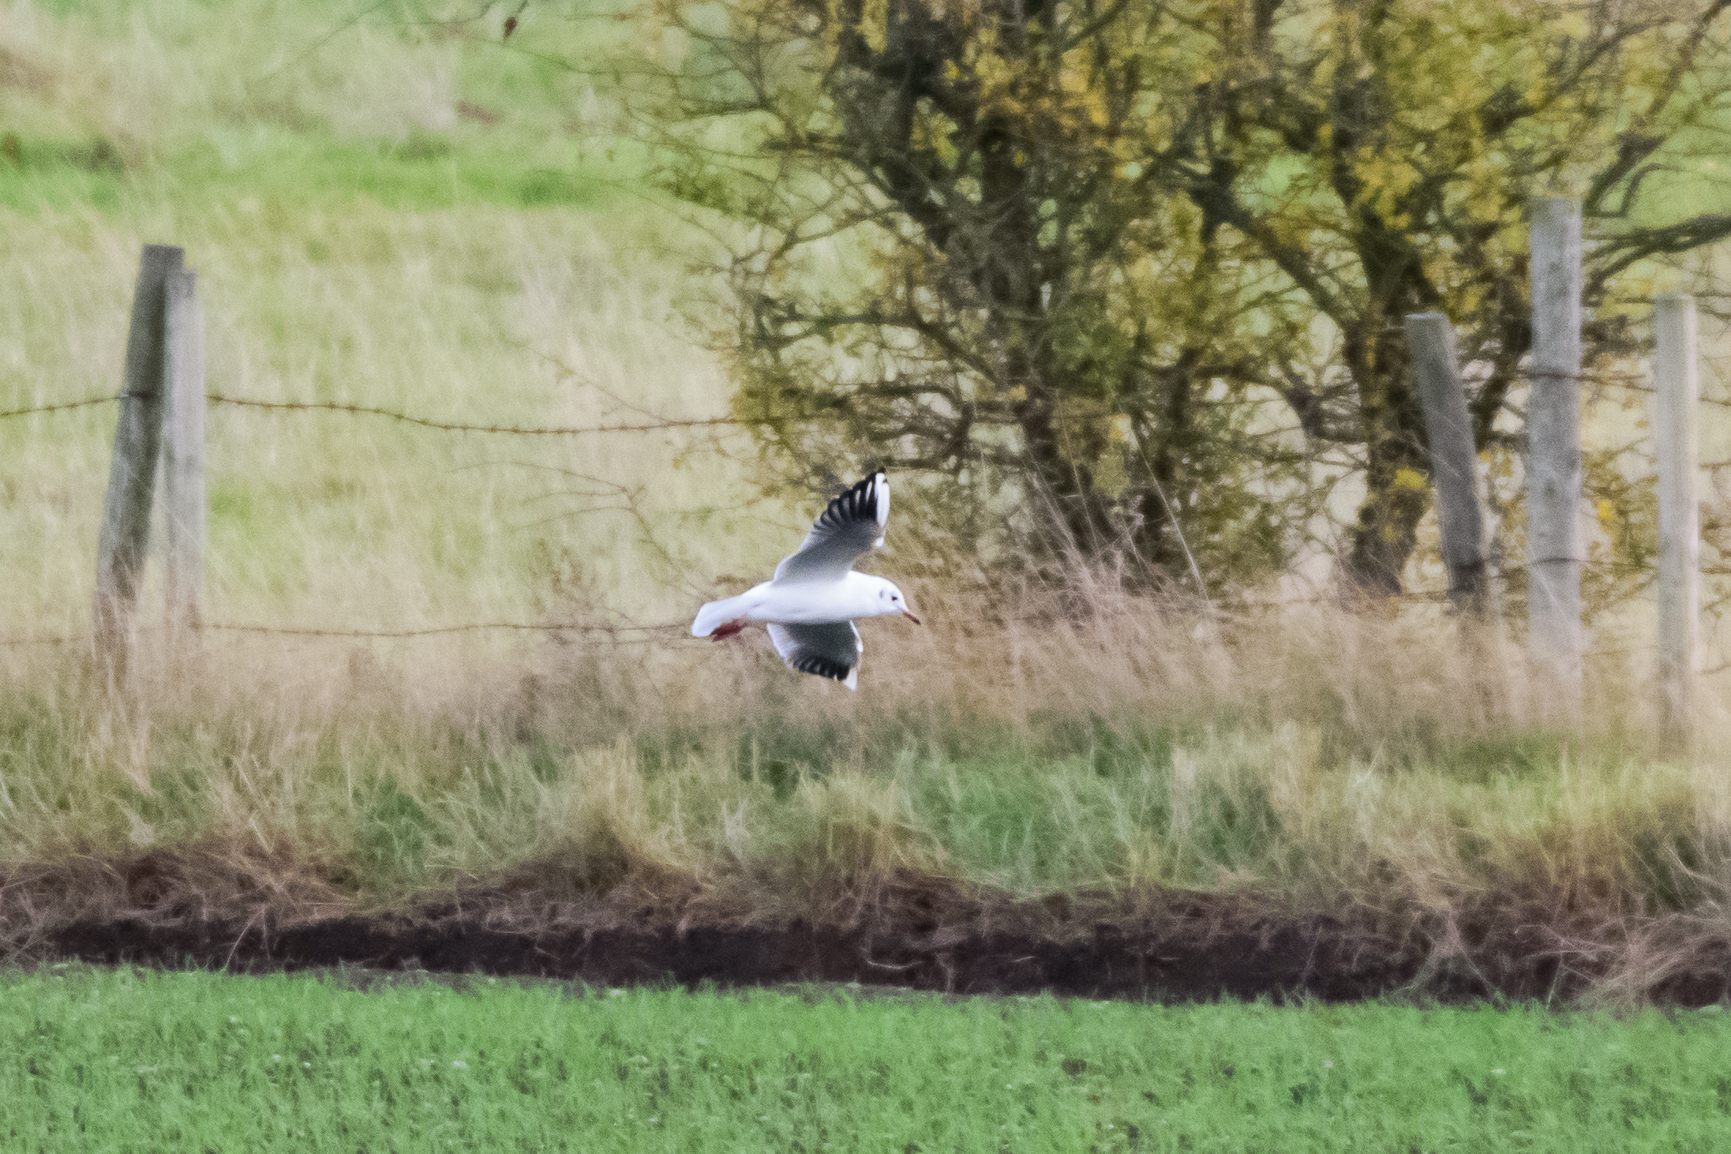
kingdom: Animalia
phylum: Chordata
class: Aves
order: Charadriiformes
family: Laridae
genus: Chroicocephalus
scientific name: Chroicocephalus ridibundus
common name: Black-headed gull
